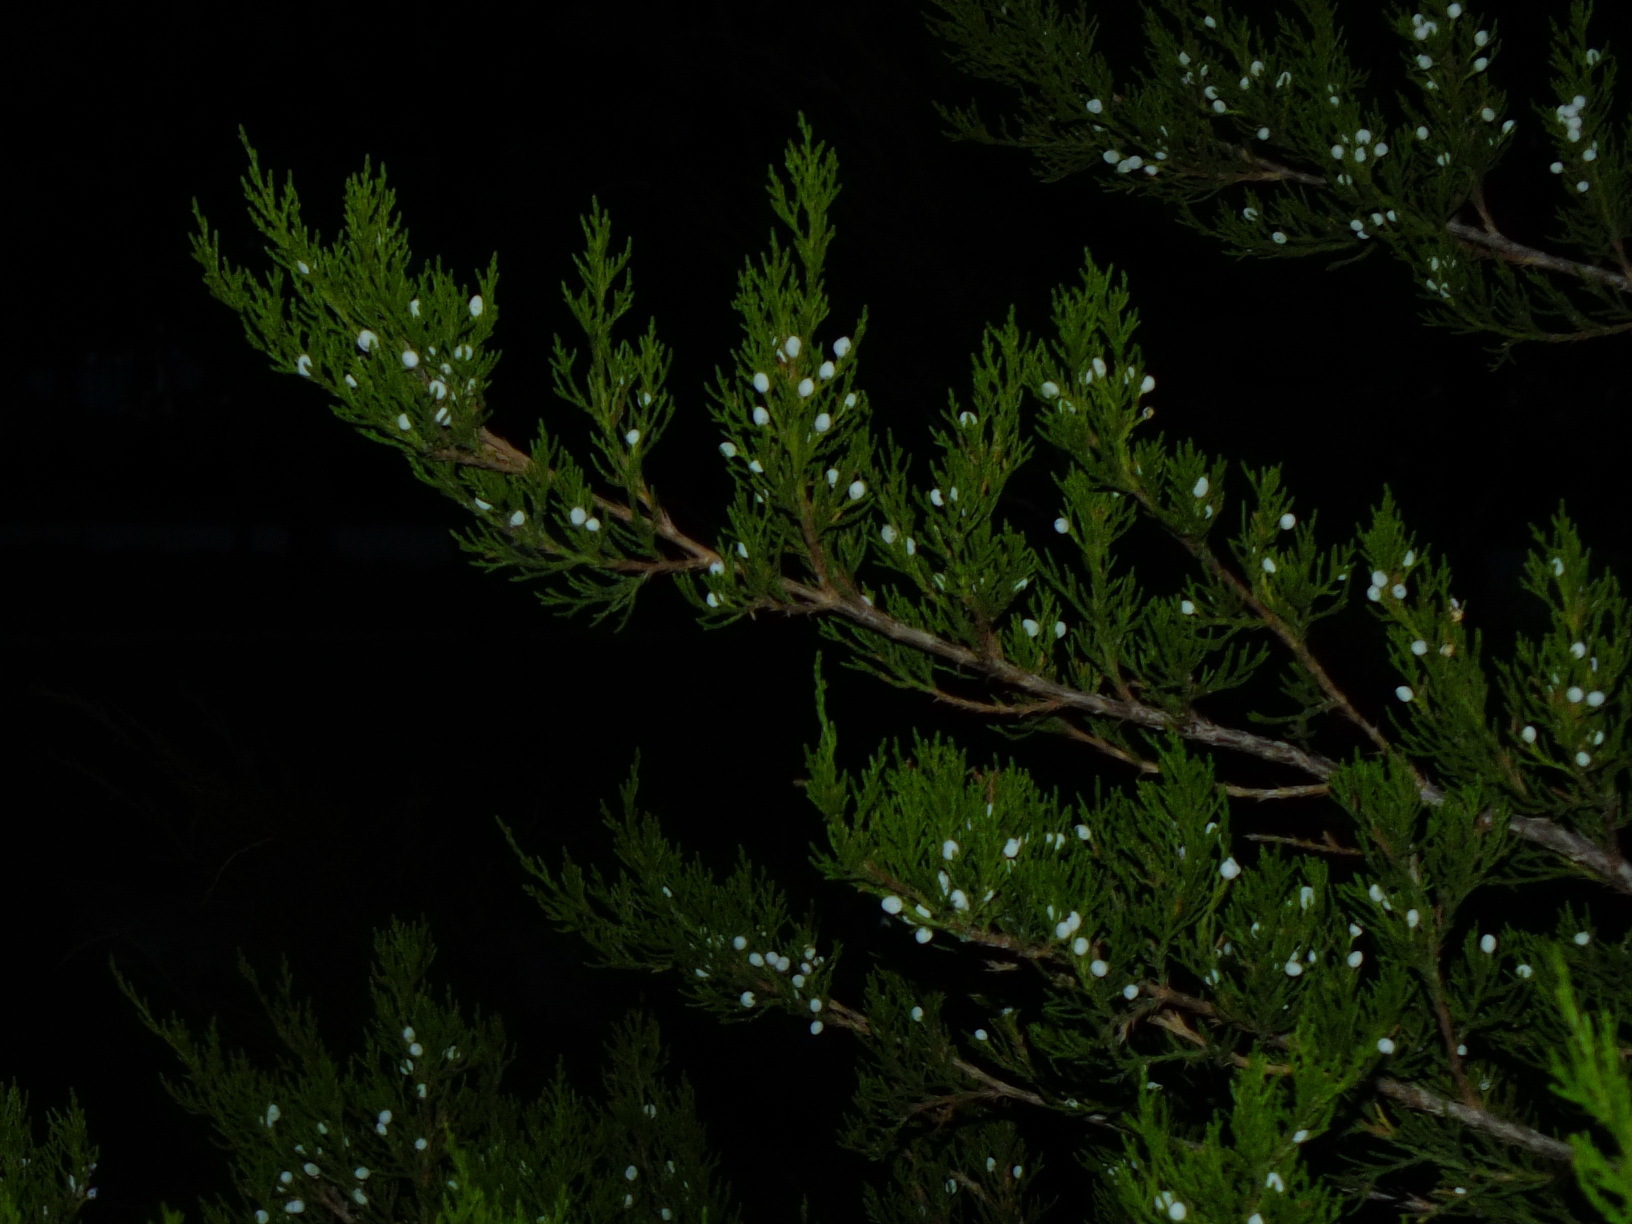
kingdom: Plantae
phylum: Tracheophyta
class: Pinopsida
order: Pinales
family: Cupressaceae
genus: Juniperus
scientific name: Juniperus excelsa
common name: Crimean juniper
